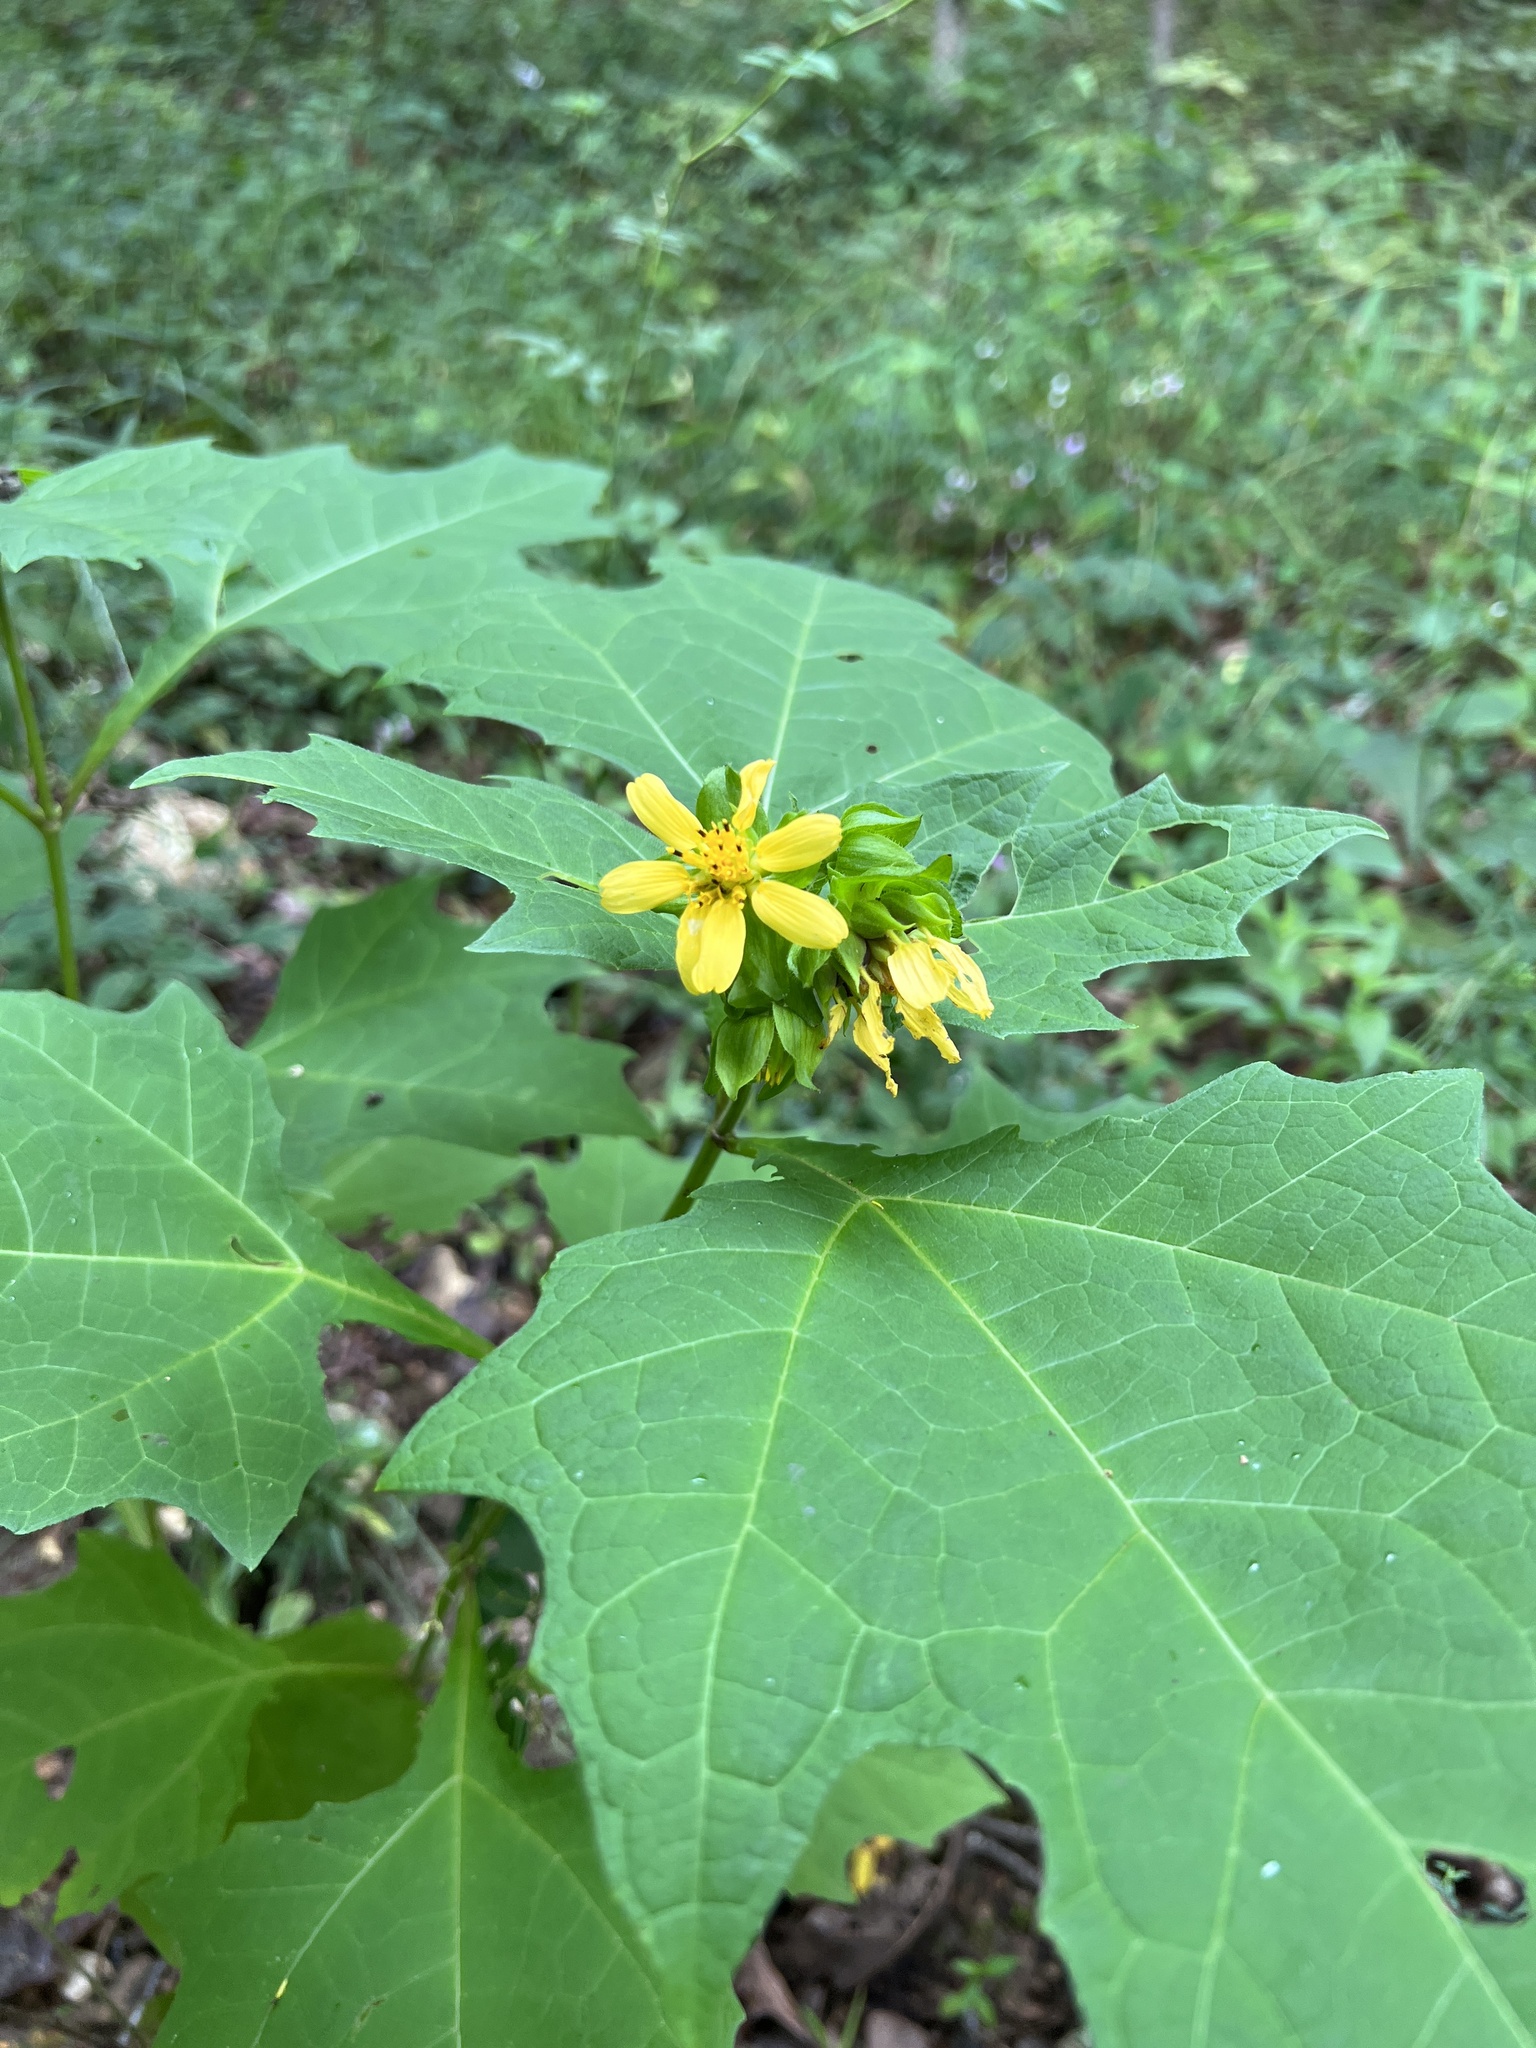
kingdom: Plantae
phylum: Tracheophyta
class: Magnoliopsida
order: Asterales
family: Asteraceae
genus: Smallanthus
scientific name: Smallanthus uvedalia
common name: Bear's-foot
